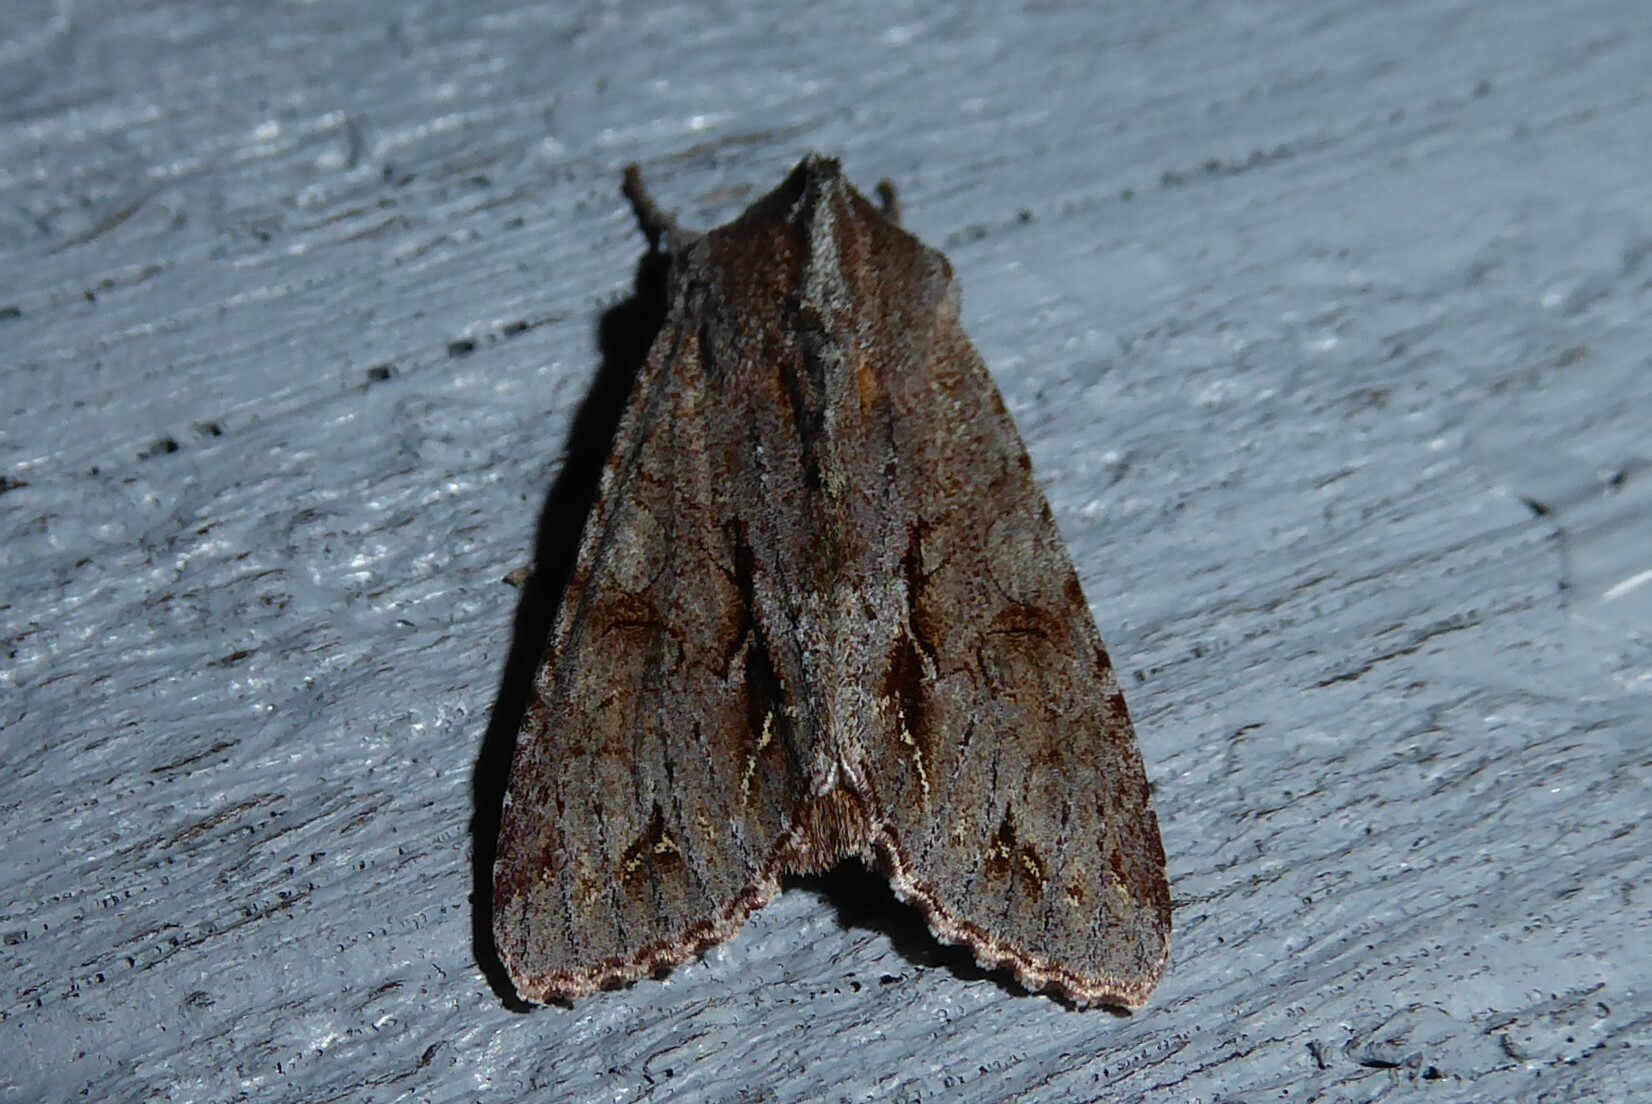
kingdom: Animalia
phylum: Arthropoda
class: Insecta
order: Lepidoptera
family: Noctuidae
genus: Ichneutica
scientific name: Ichneutica
